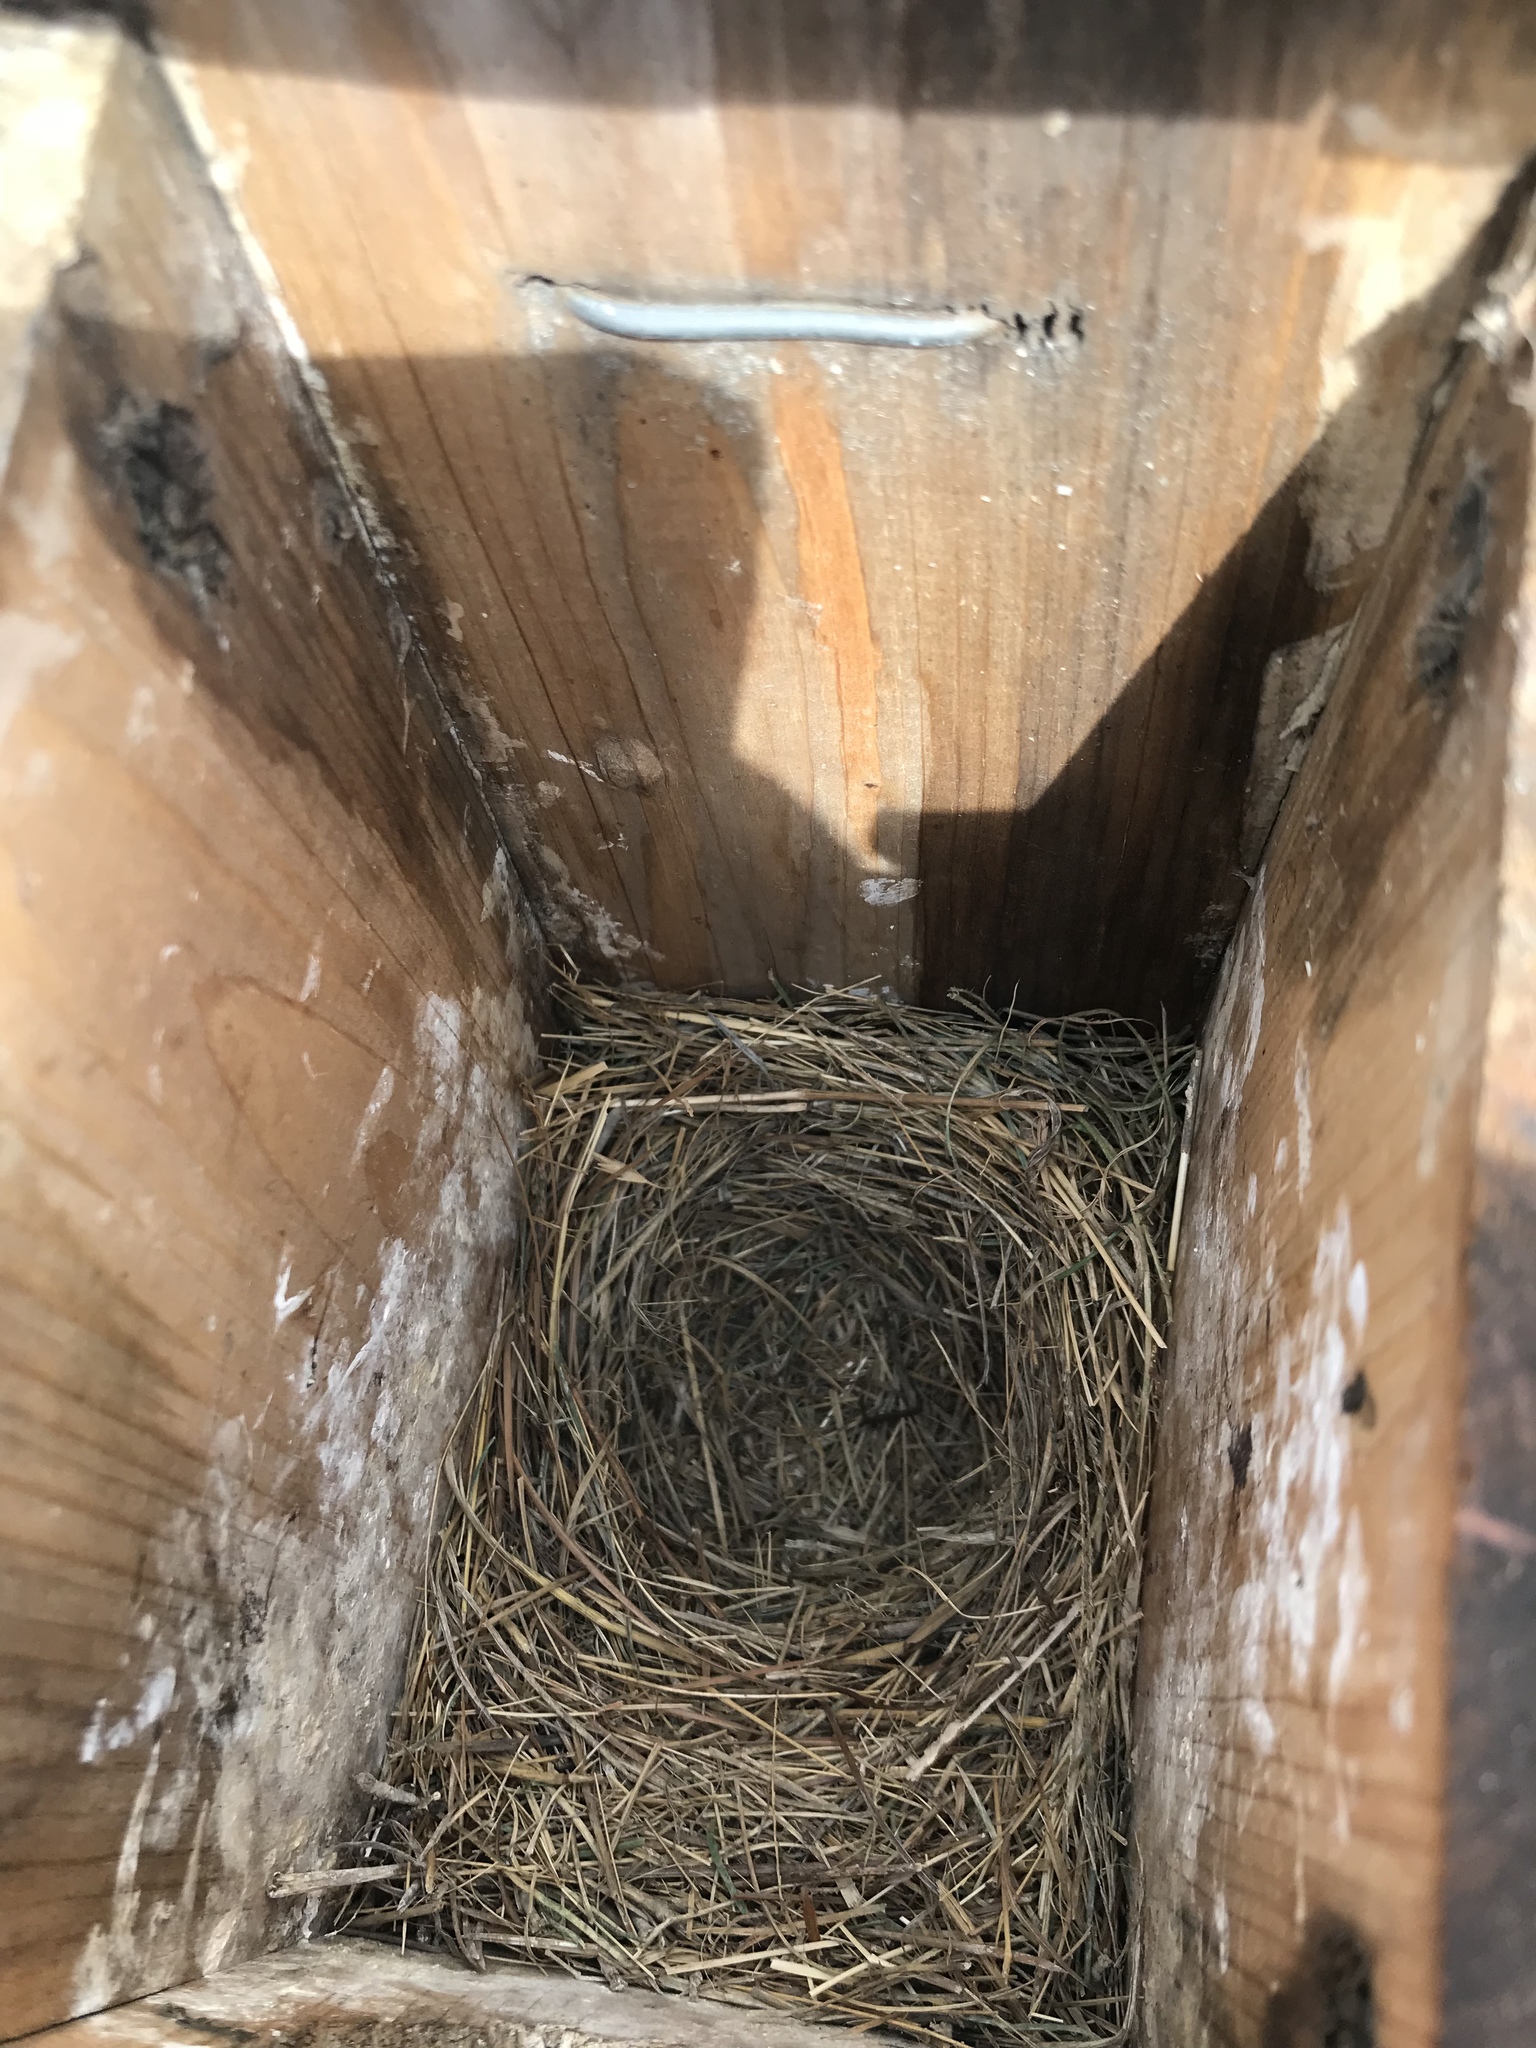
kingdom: Animalia
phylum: Chordata
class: Aves
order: Passeriformes
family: Turdidae
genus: Sialia
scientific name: Sialia sialis
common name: Eastern bluebird
